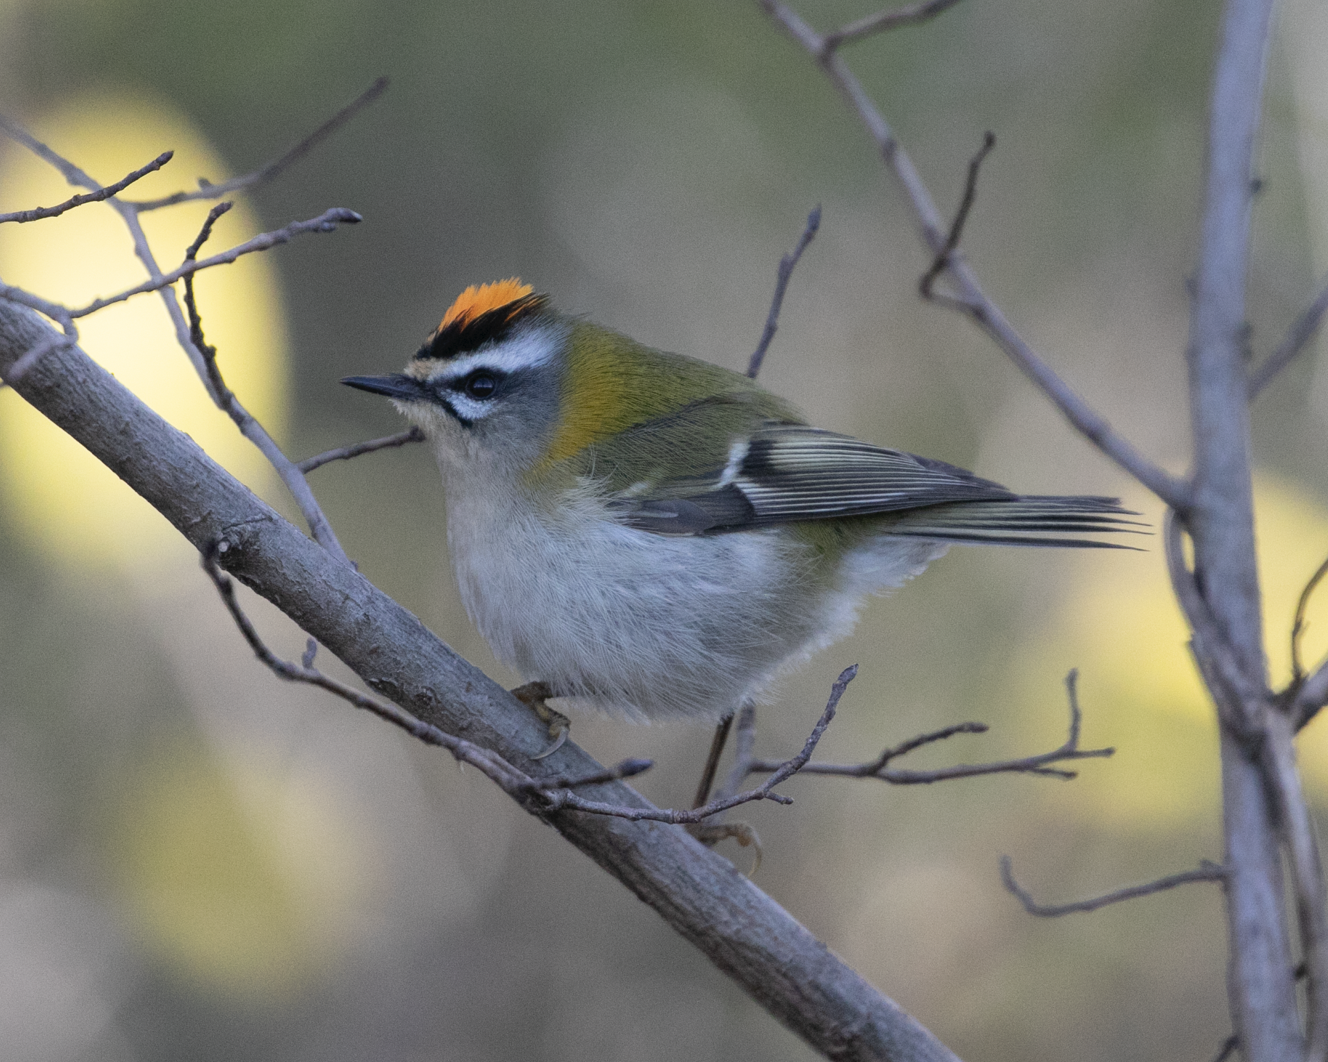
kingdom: Animalia
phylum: Chordata
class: Aves
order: Passeriformes
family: Regulidae
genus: Regulus
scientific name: Regulus ignicapilla
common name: Firecrest
